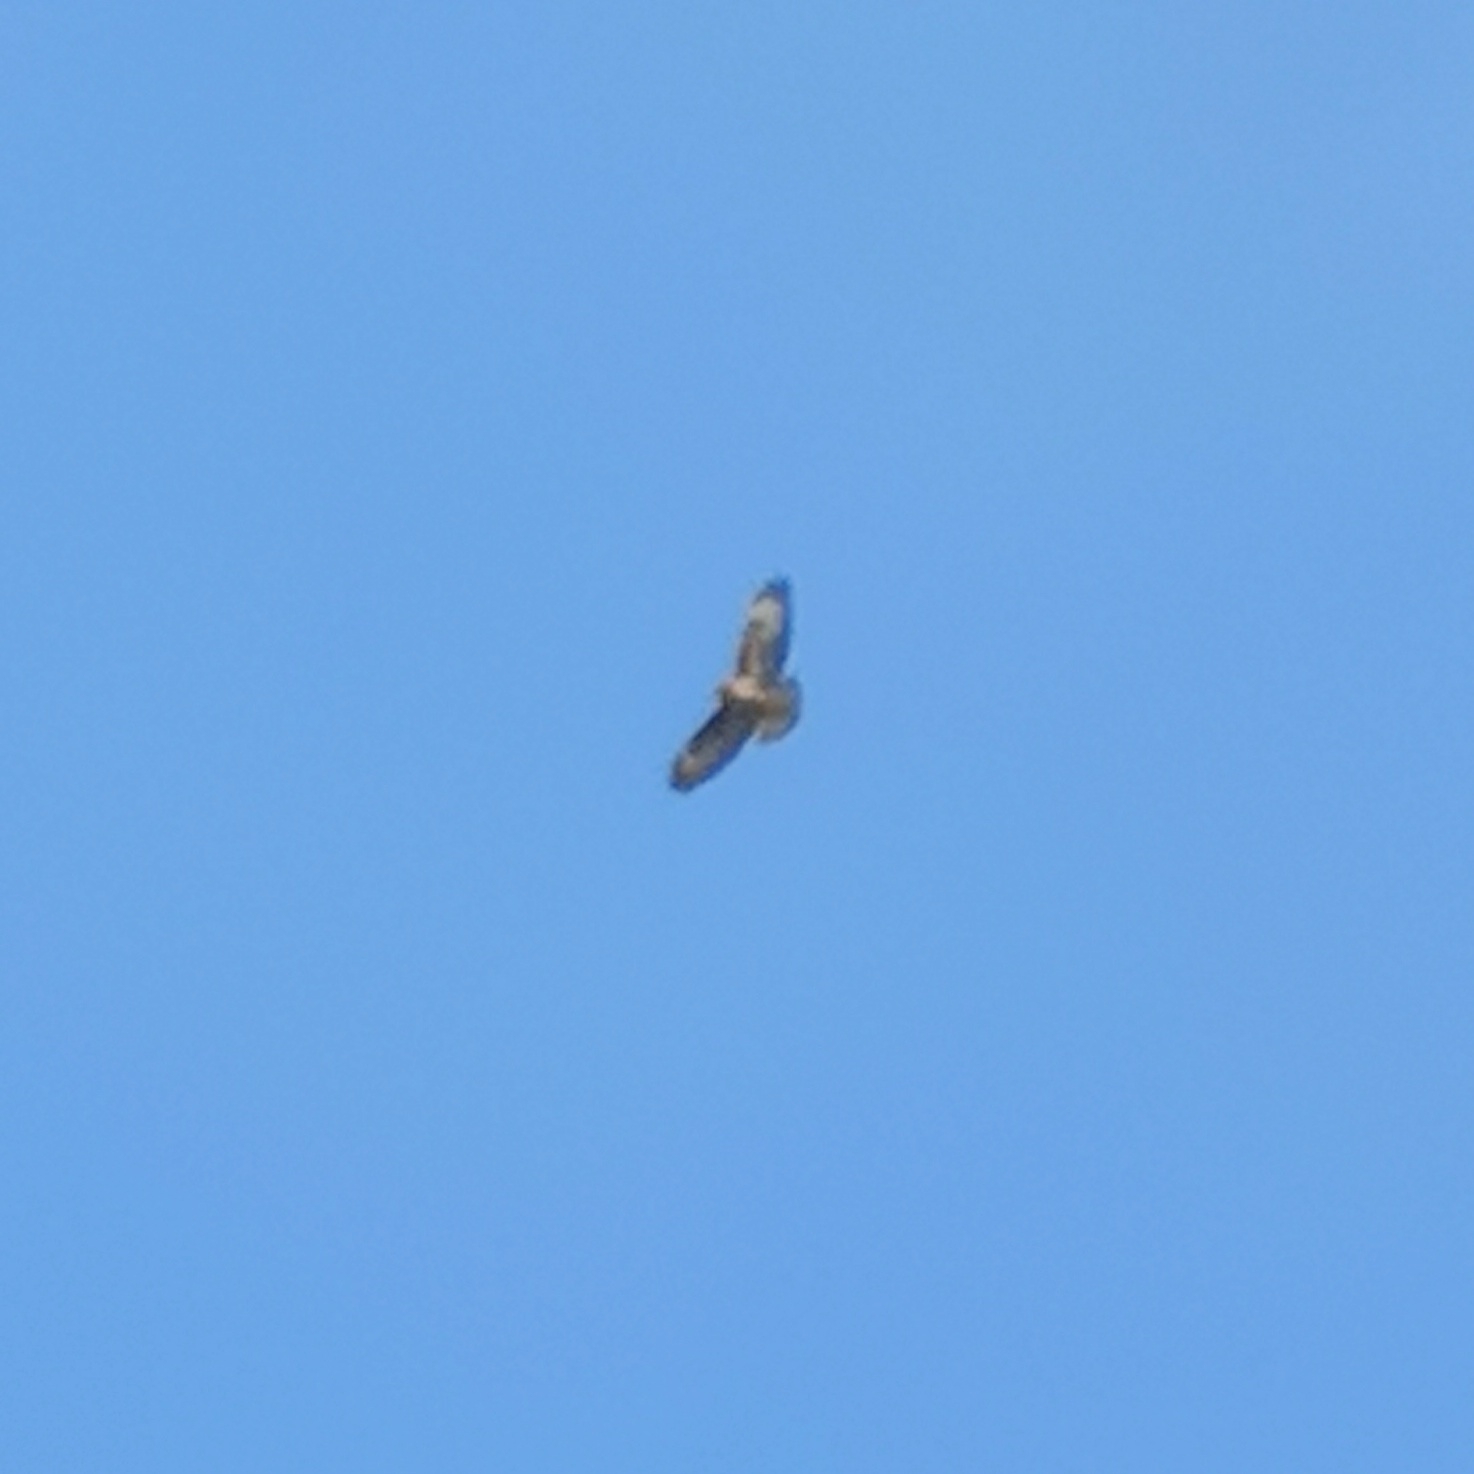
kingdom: Animalia
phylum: Chordata
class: Aves
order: Accipitriformes
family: Accipitridae
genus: Buteo
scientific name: Buteo buteo
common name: Common buzzard
